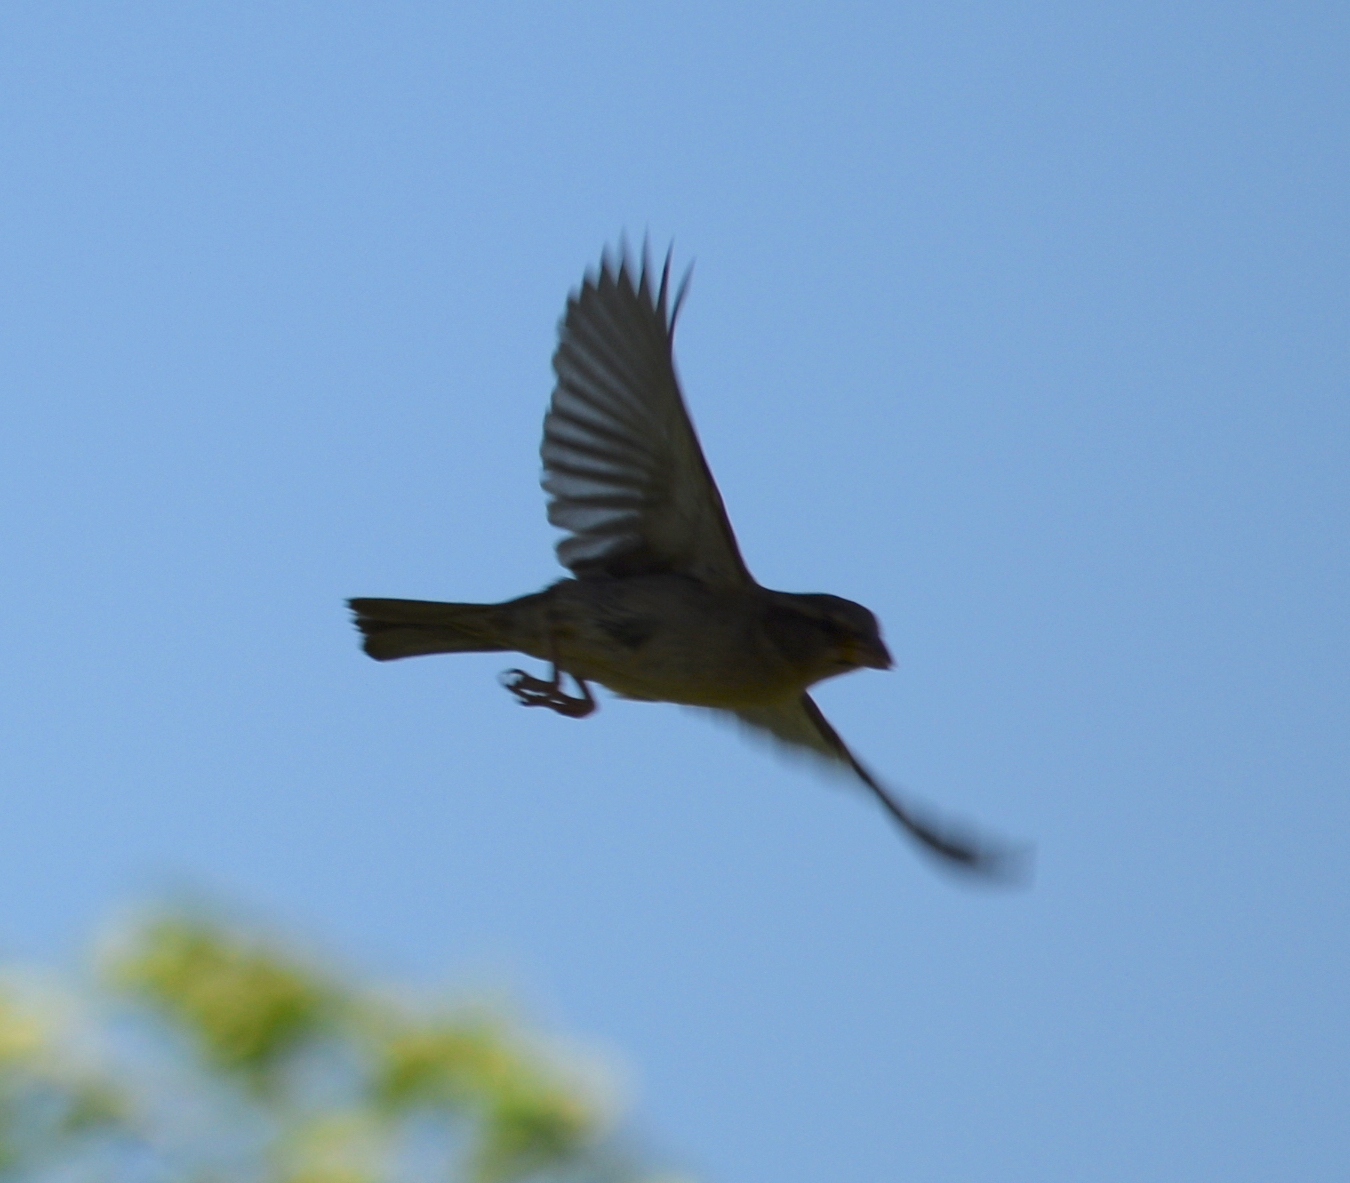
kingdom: Animalia
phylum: Chordata
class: Aves
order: Passeriformes
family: Passeridae
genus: Passer
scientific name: Passer domesticus
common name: House sparrow
